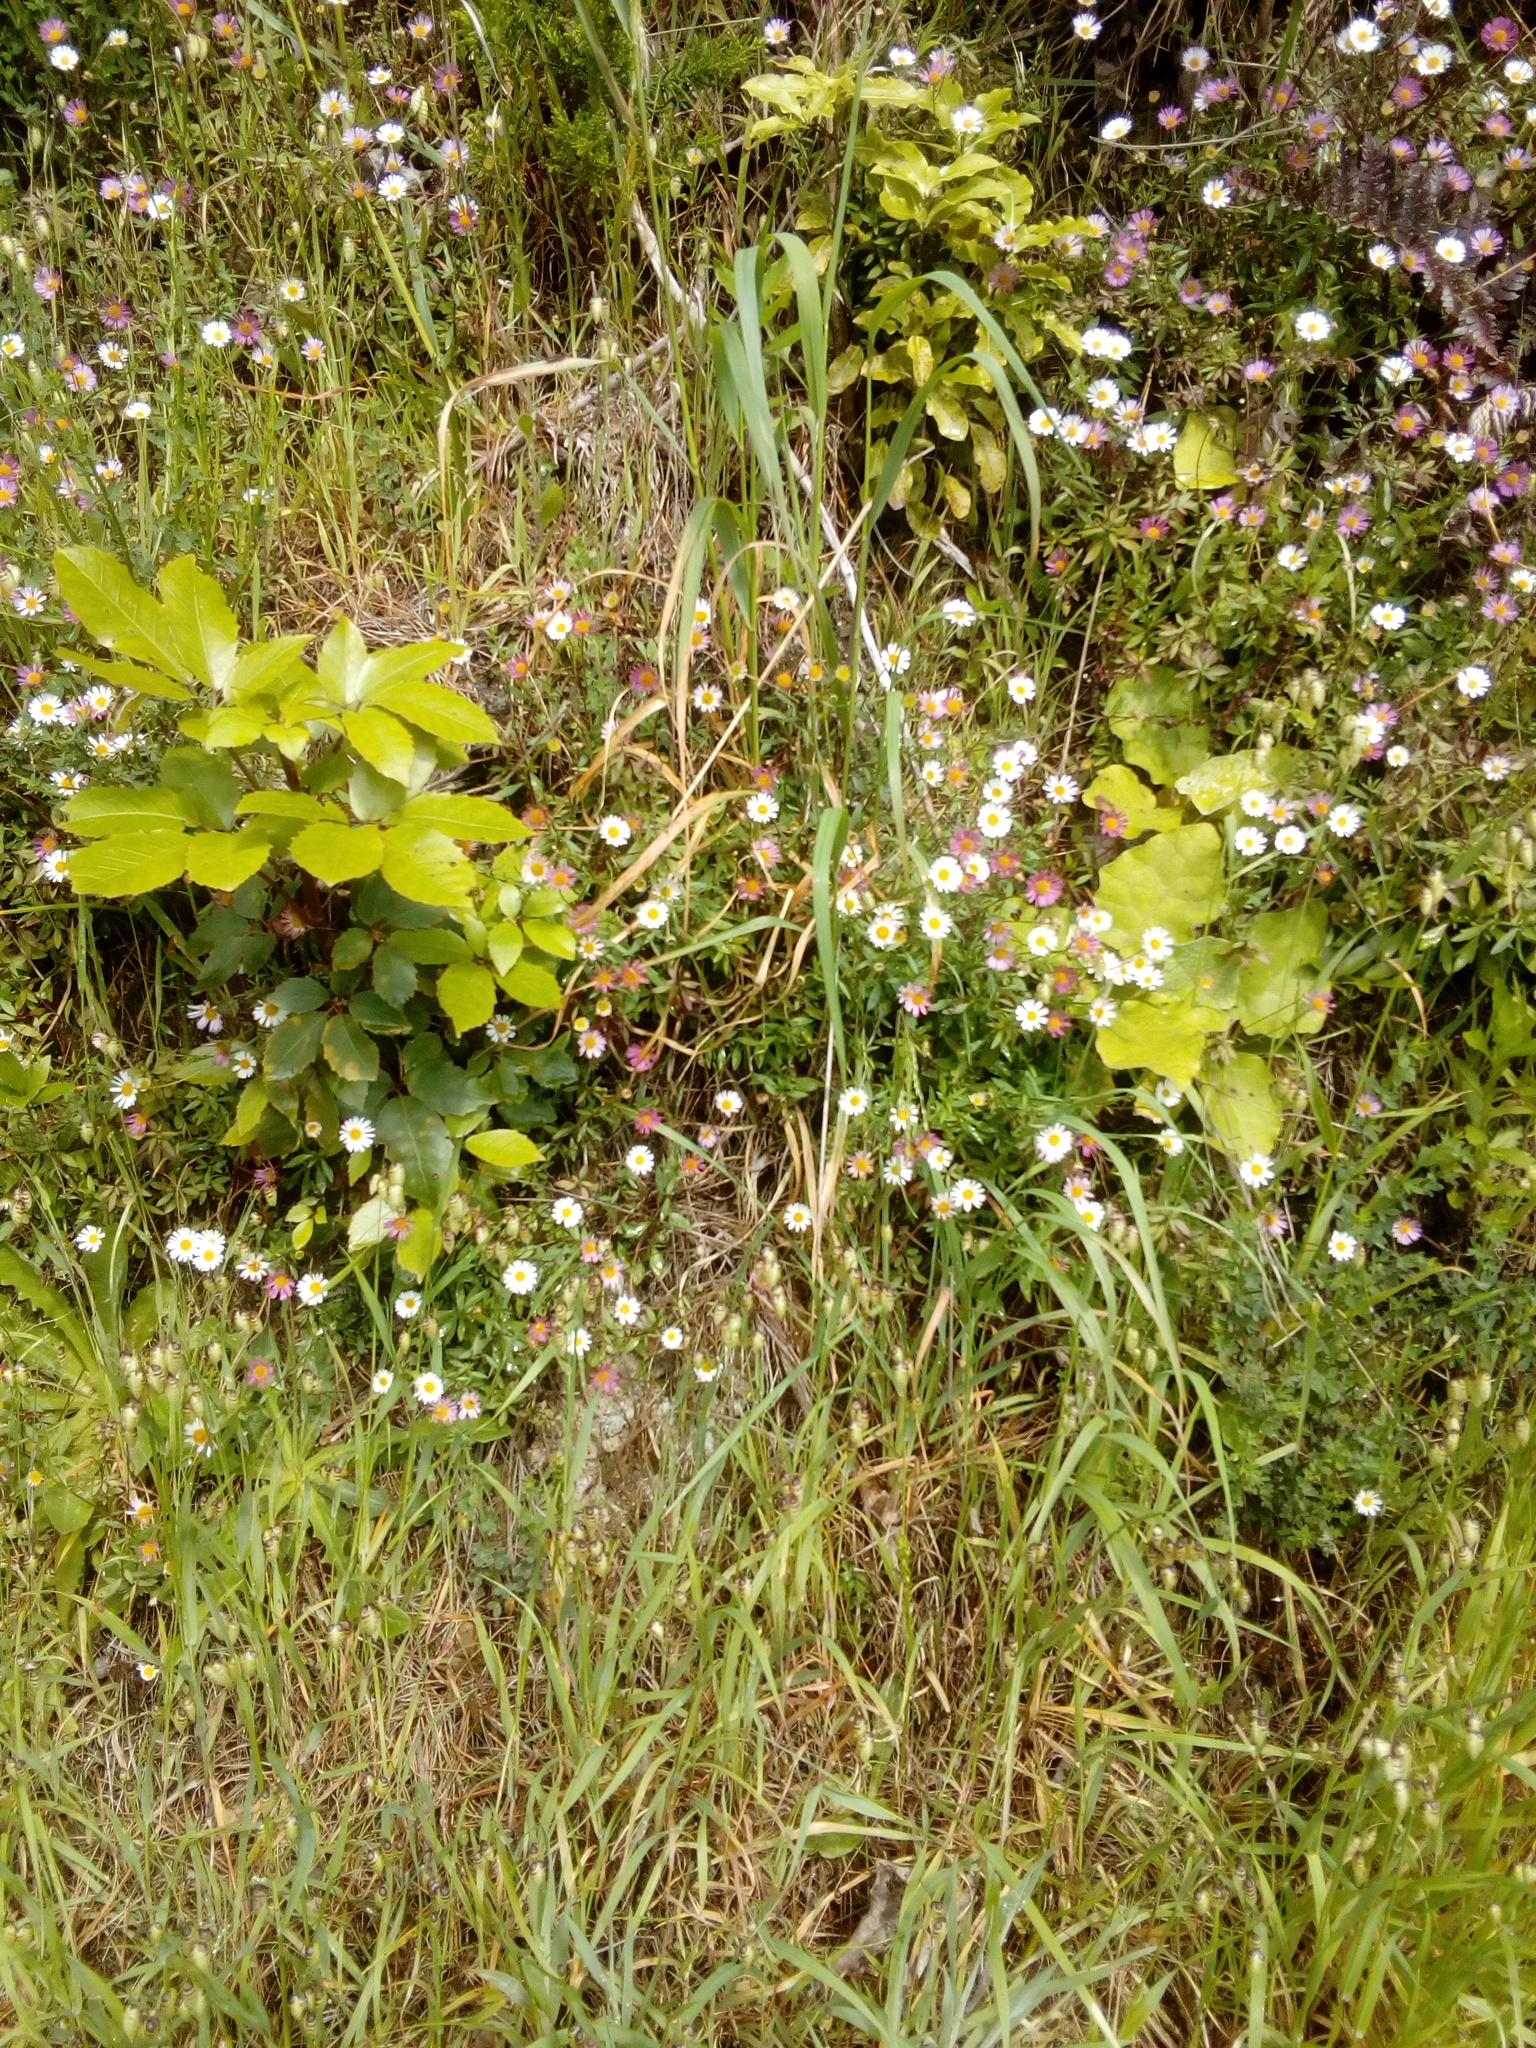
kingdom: Plantae
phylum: Tracheophyta
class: Magnoliopsida
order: Asterales
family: Asteraceae
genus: Erigeron
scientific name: Erigeron karvinskianus
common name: Mexican fleabane
